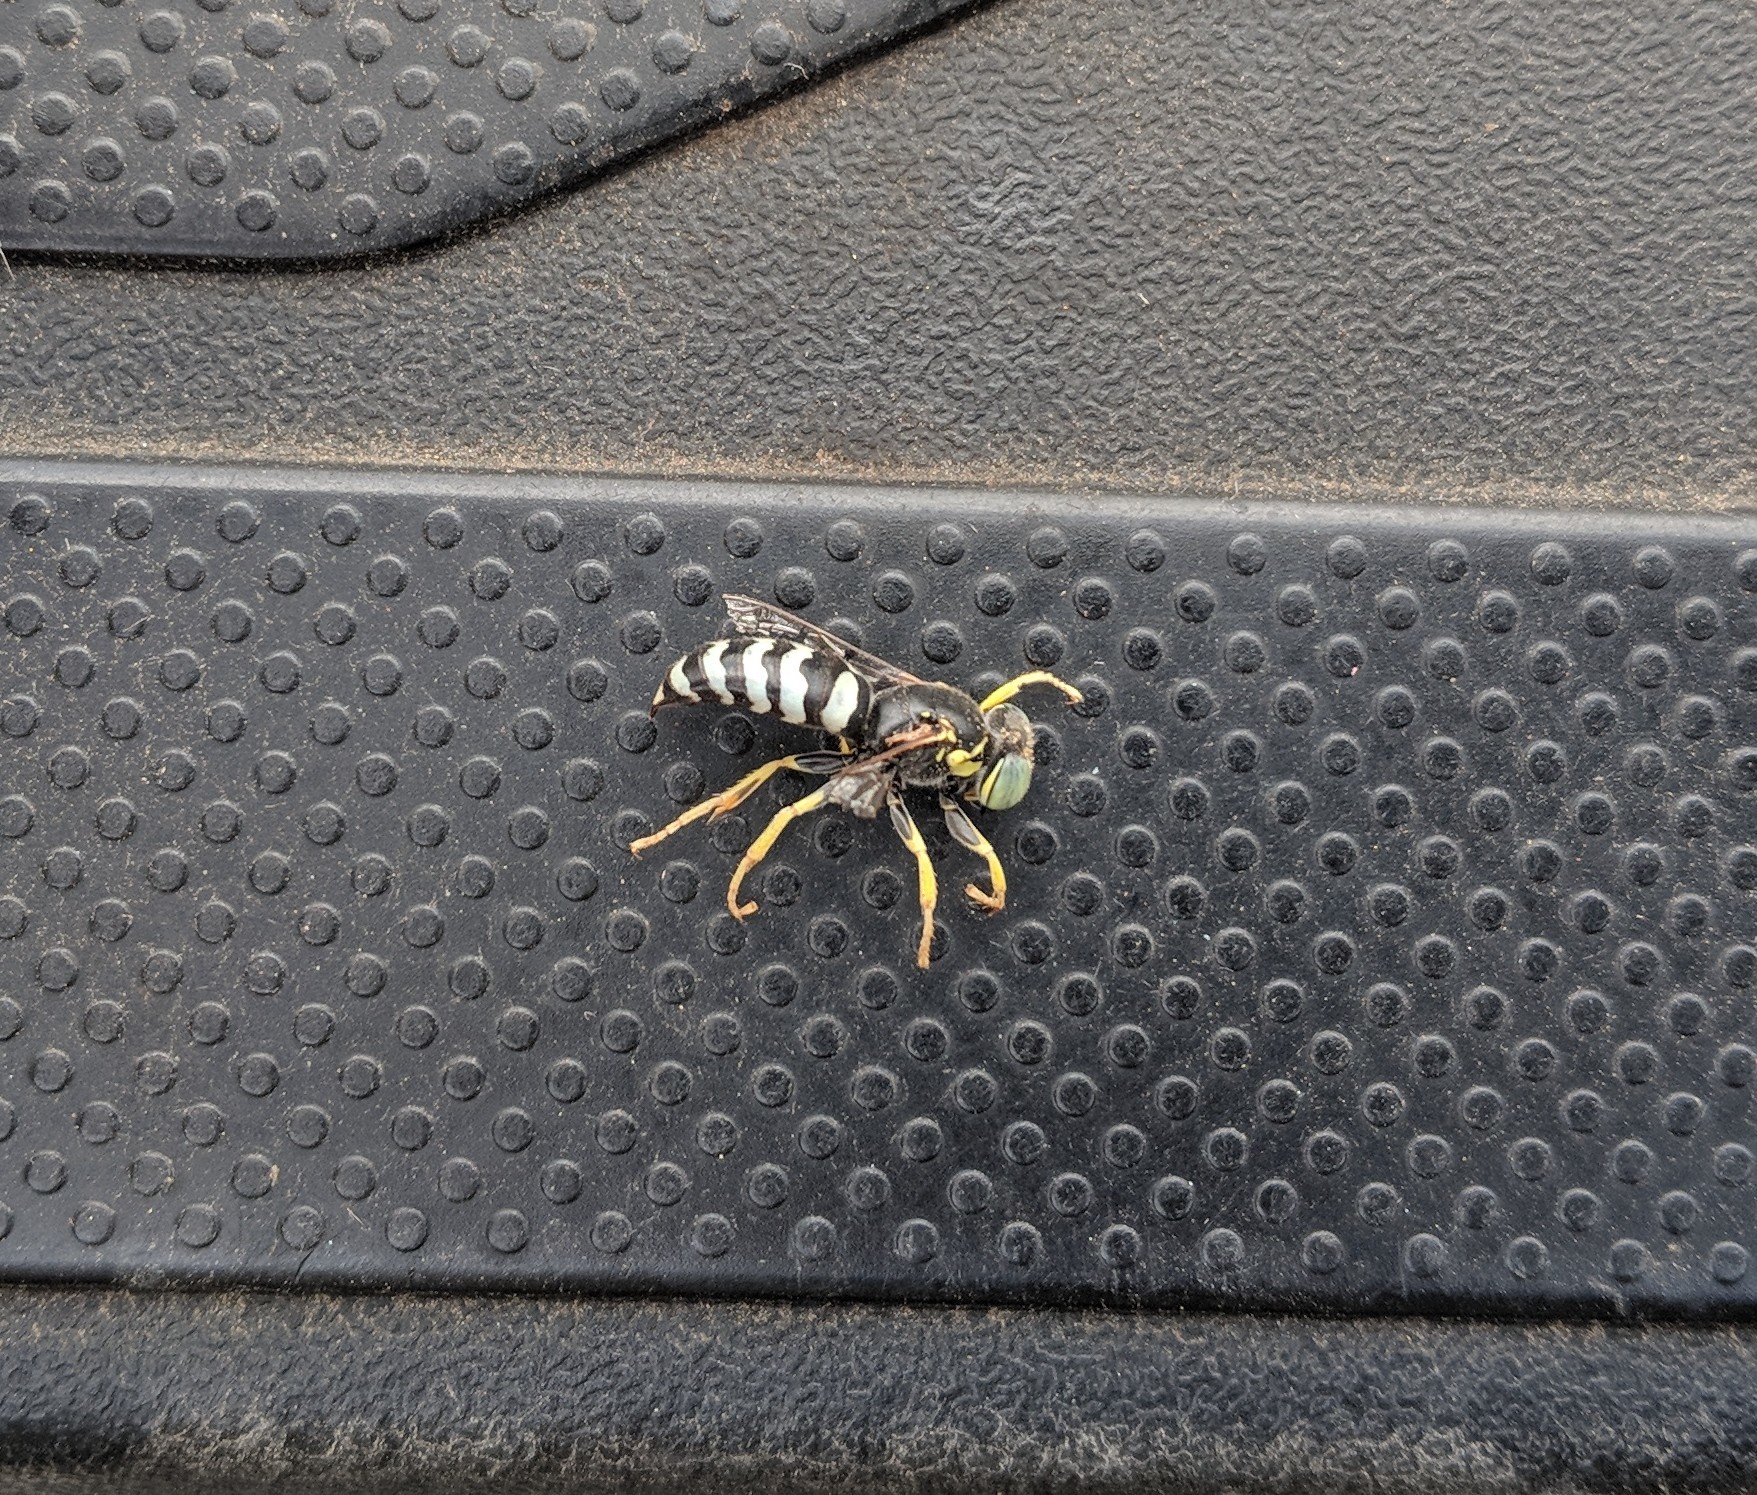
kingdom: Animalia
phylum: Arthropoda
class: Insecta
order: Hymenoptera
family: Crabronidae
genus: Bembix
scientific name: Bembix americana
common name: American sand wasp
